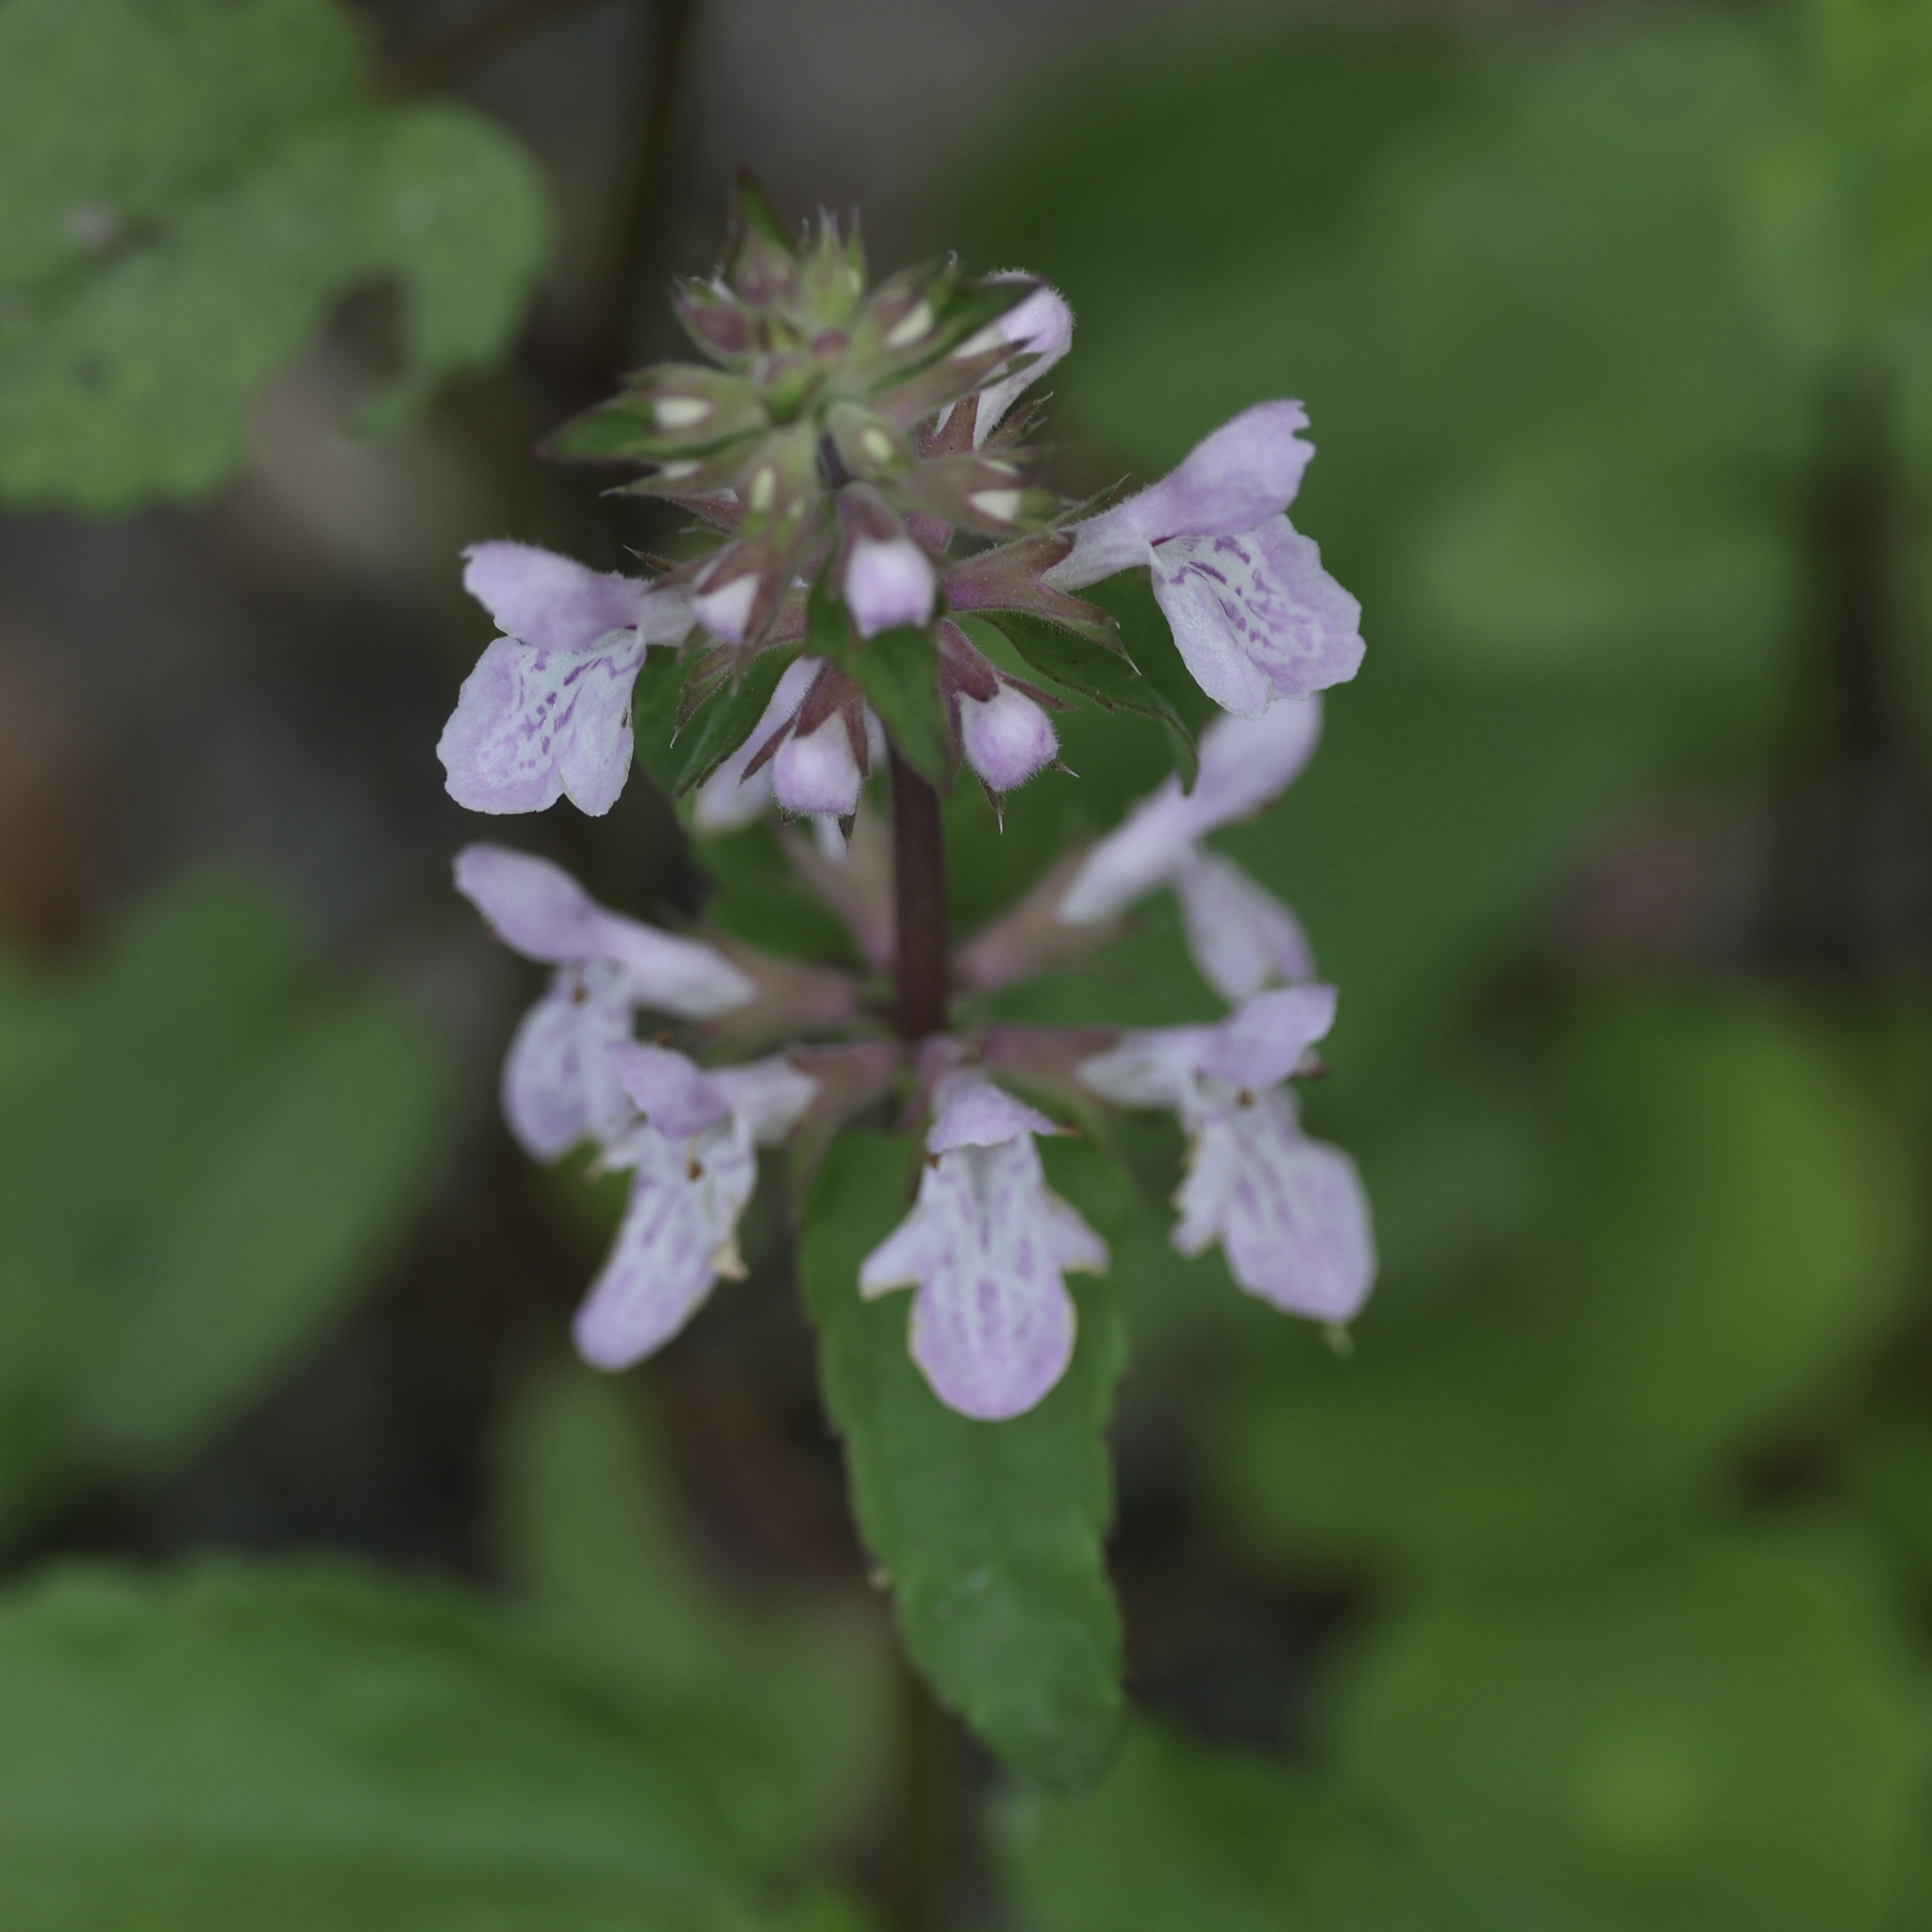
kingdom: Plantae
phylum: Tracheophyta
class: Magnoliopsida
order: Lamiales
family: Lamiaceae
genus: Stachys
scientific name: Stachys floridana
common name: Florida betony
